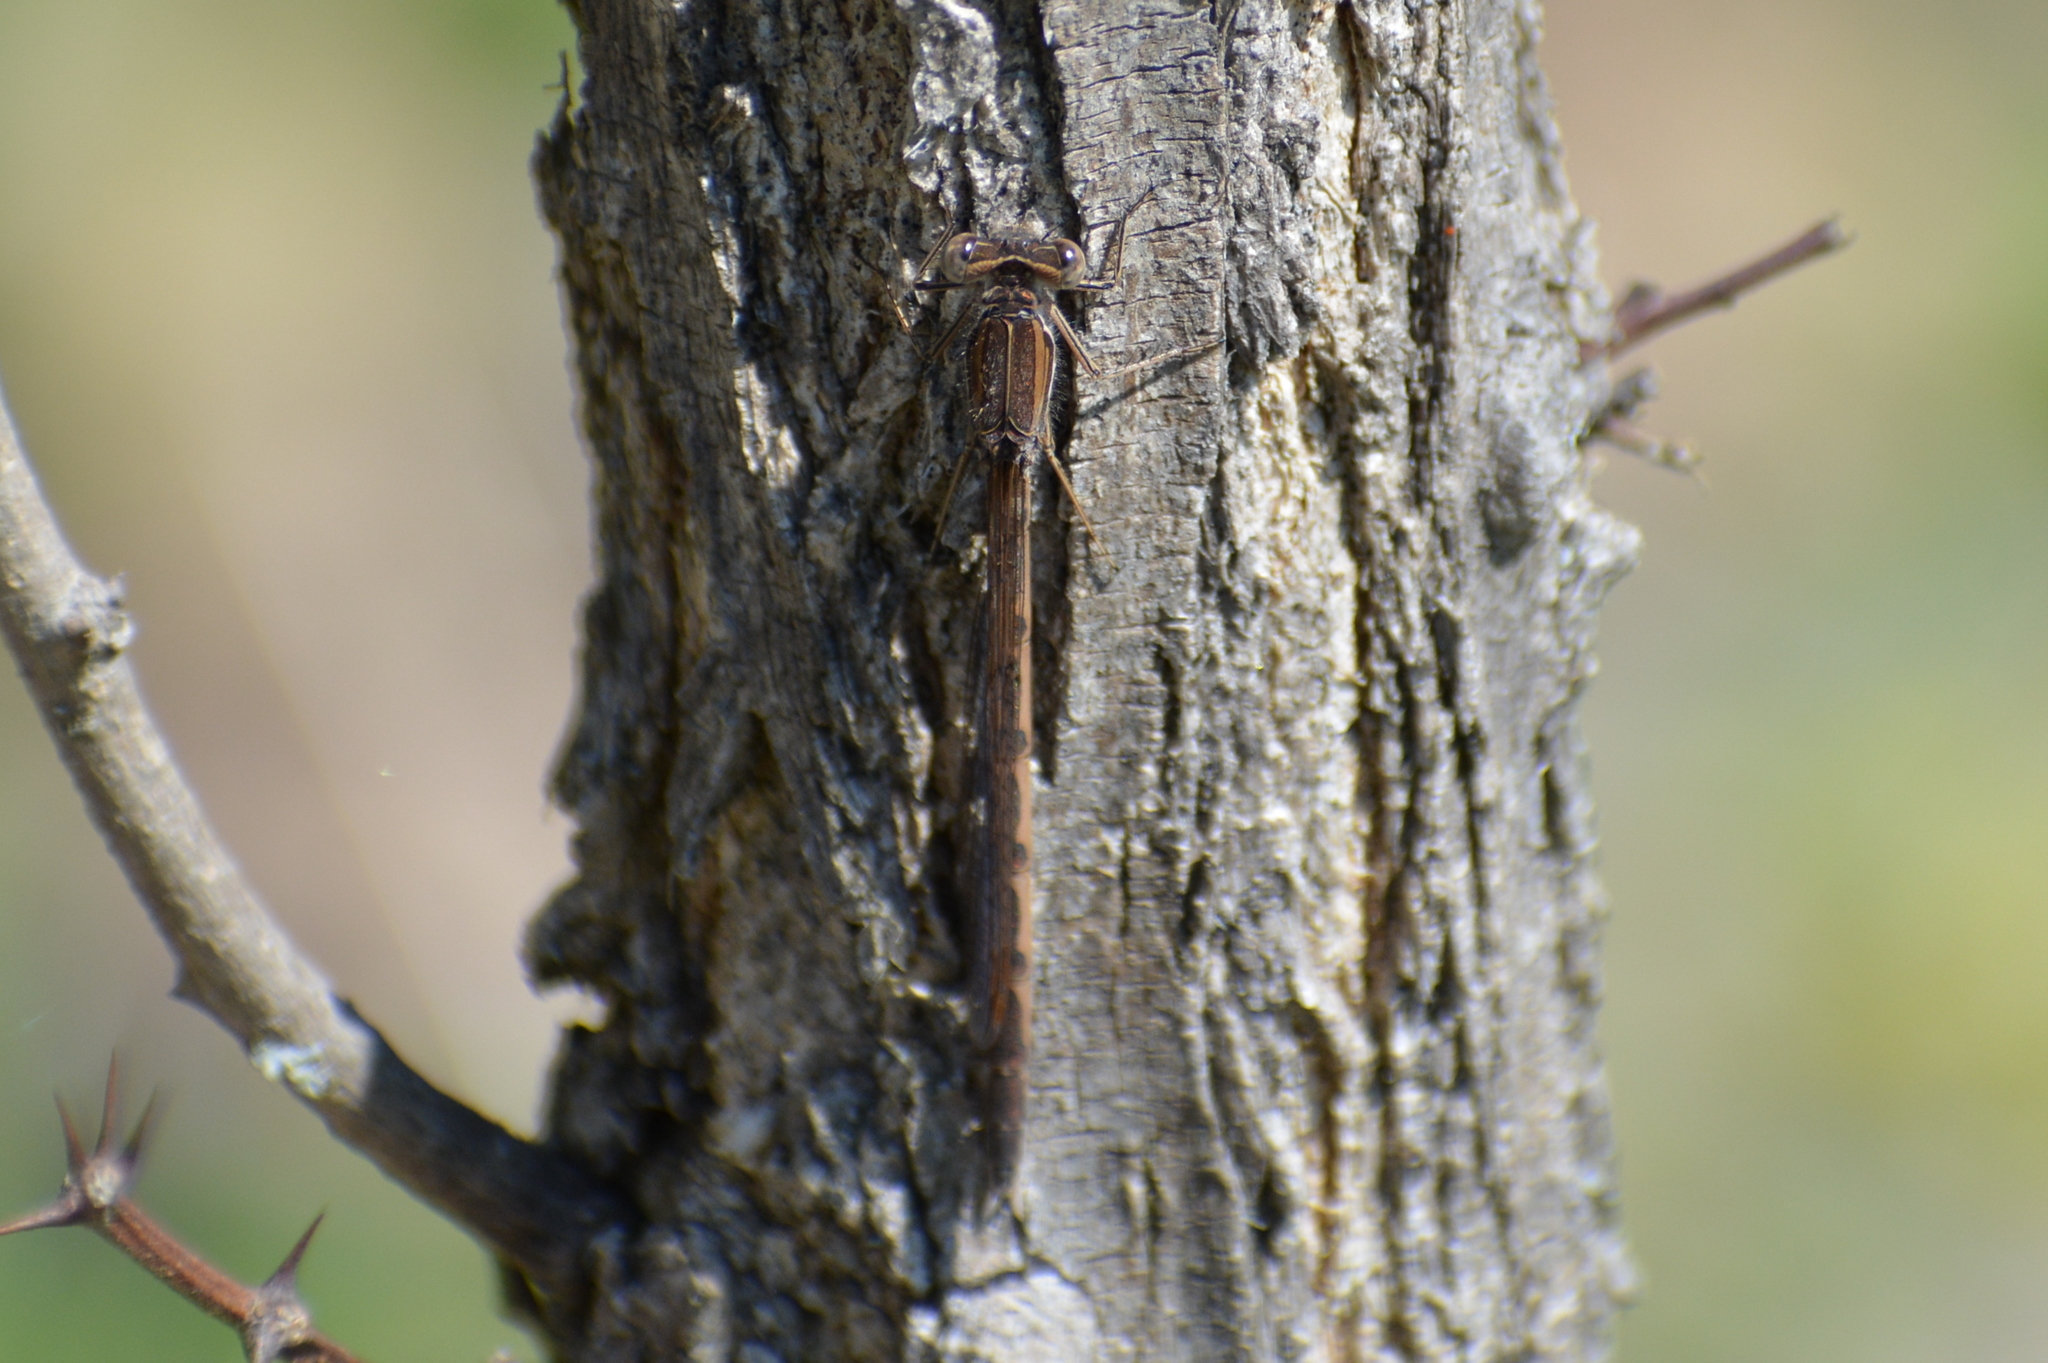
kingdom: Animalia
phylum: Arthropoda
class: Insecta
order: Odonata
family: Lestidae
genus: Sympecma
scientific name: Sympecma fusca
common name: Common winter damsel
